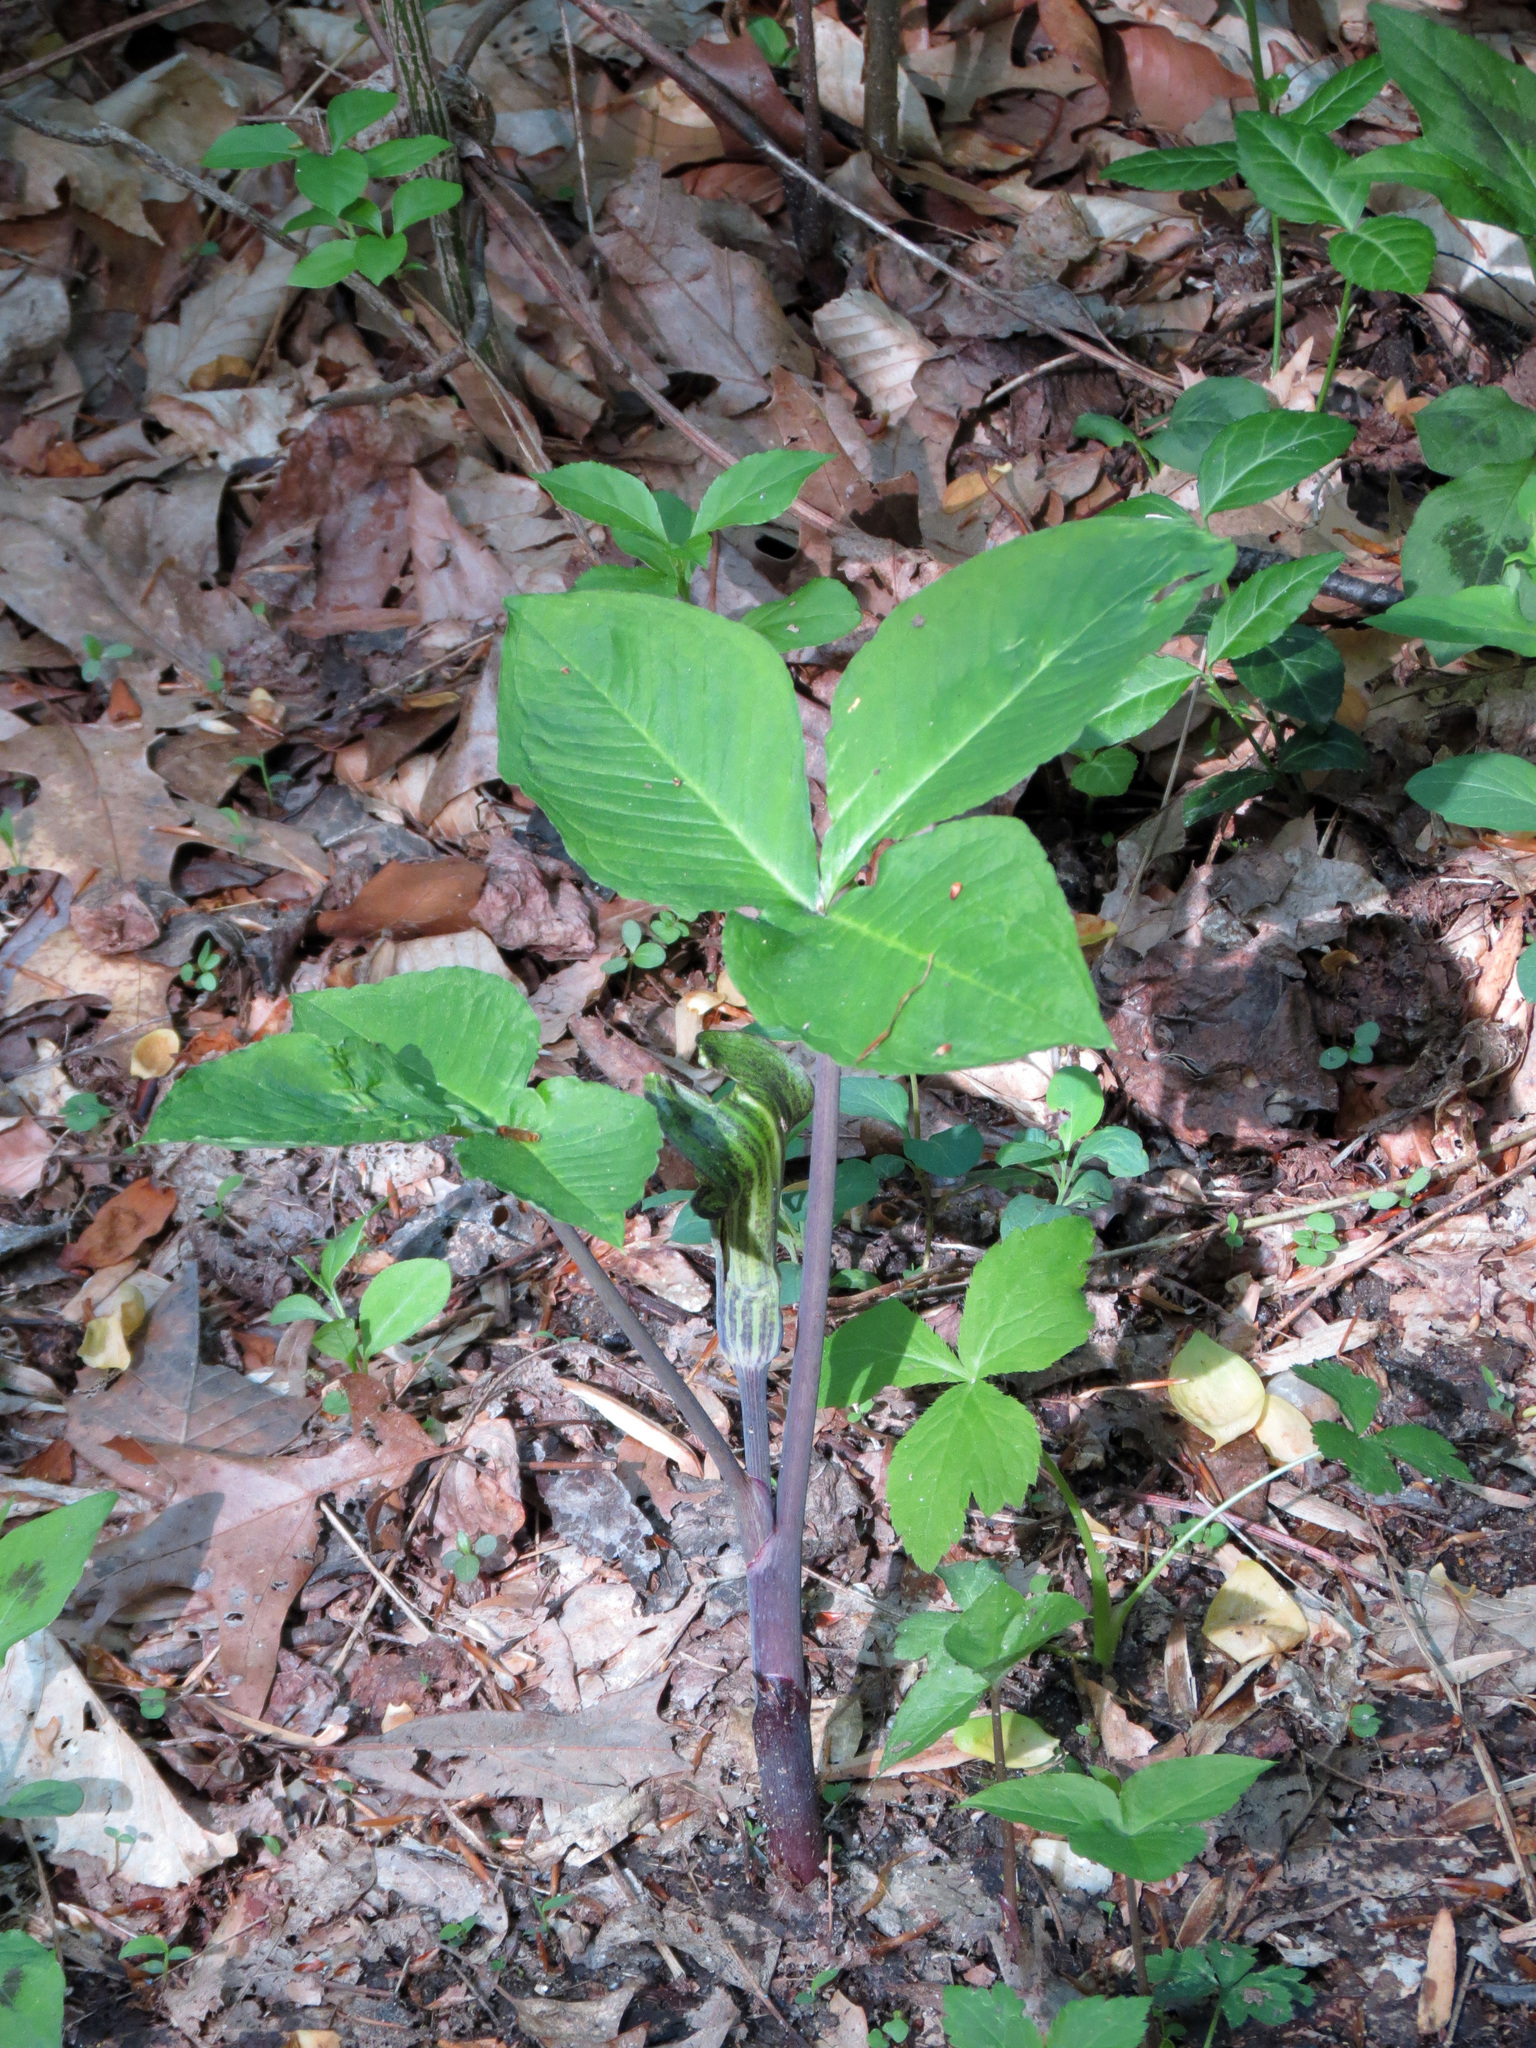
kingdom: Plantae
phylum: Tracheophyta
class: Liliopsida
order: Alismatales
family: Araceae
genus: Arisaema
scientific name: Arisaema triphyllum
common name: Jack-in-the-pulpit
